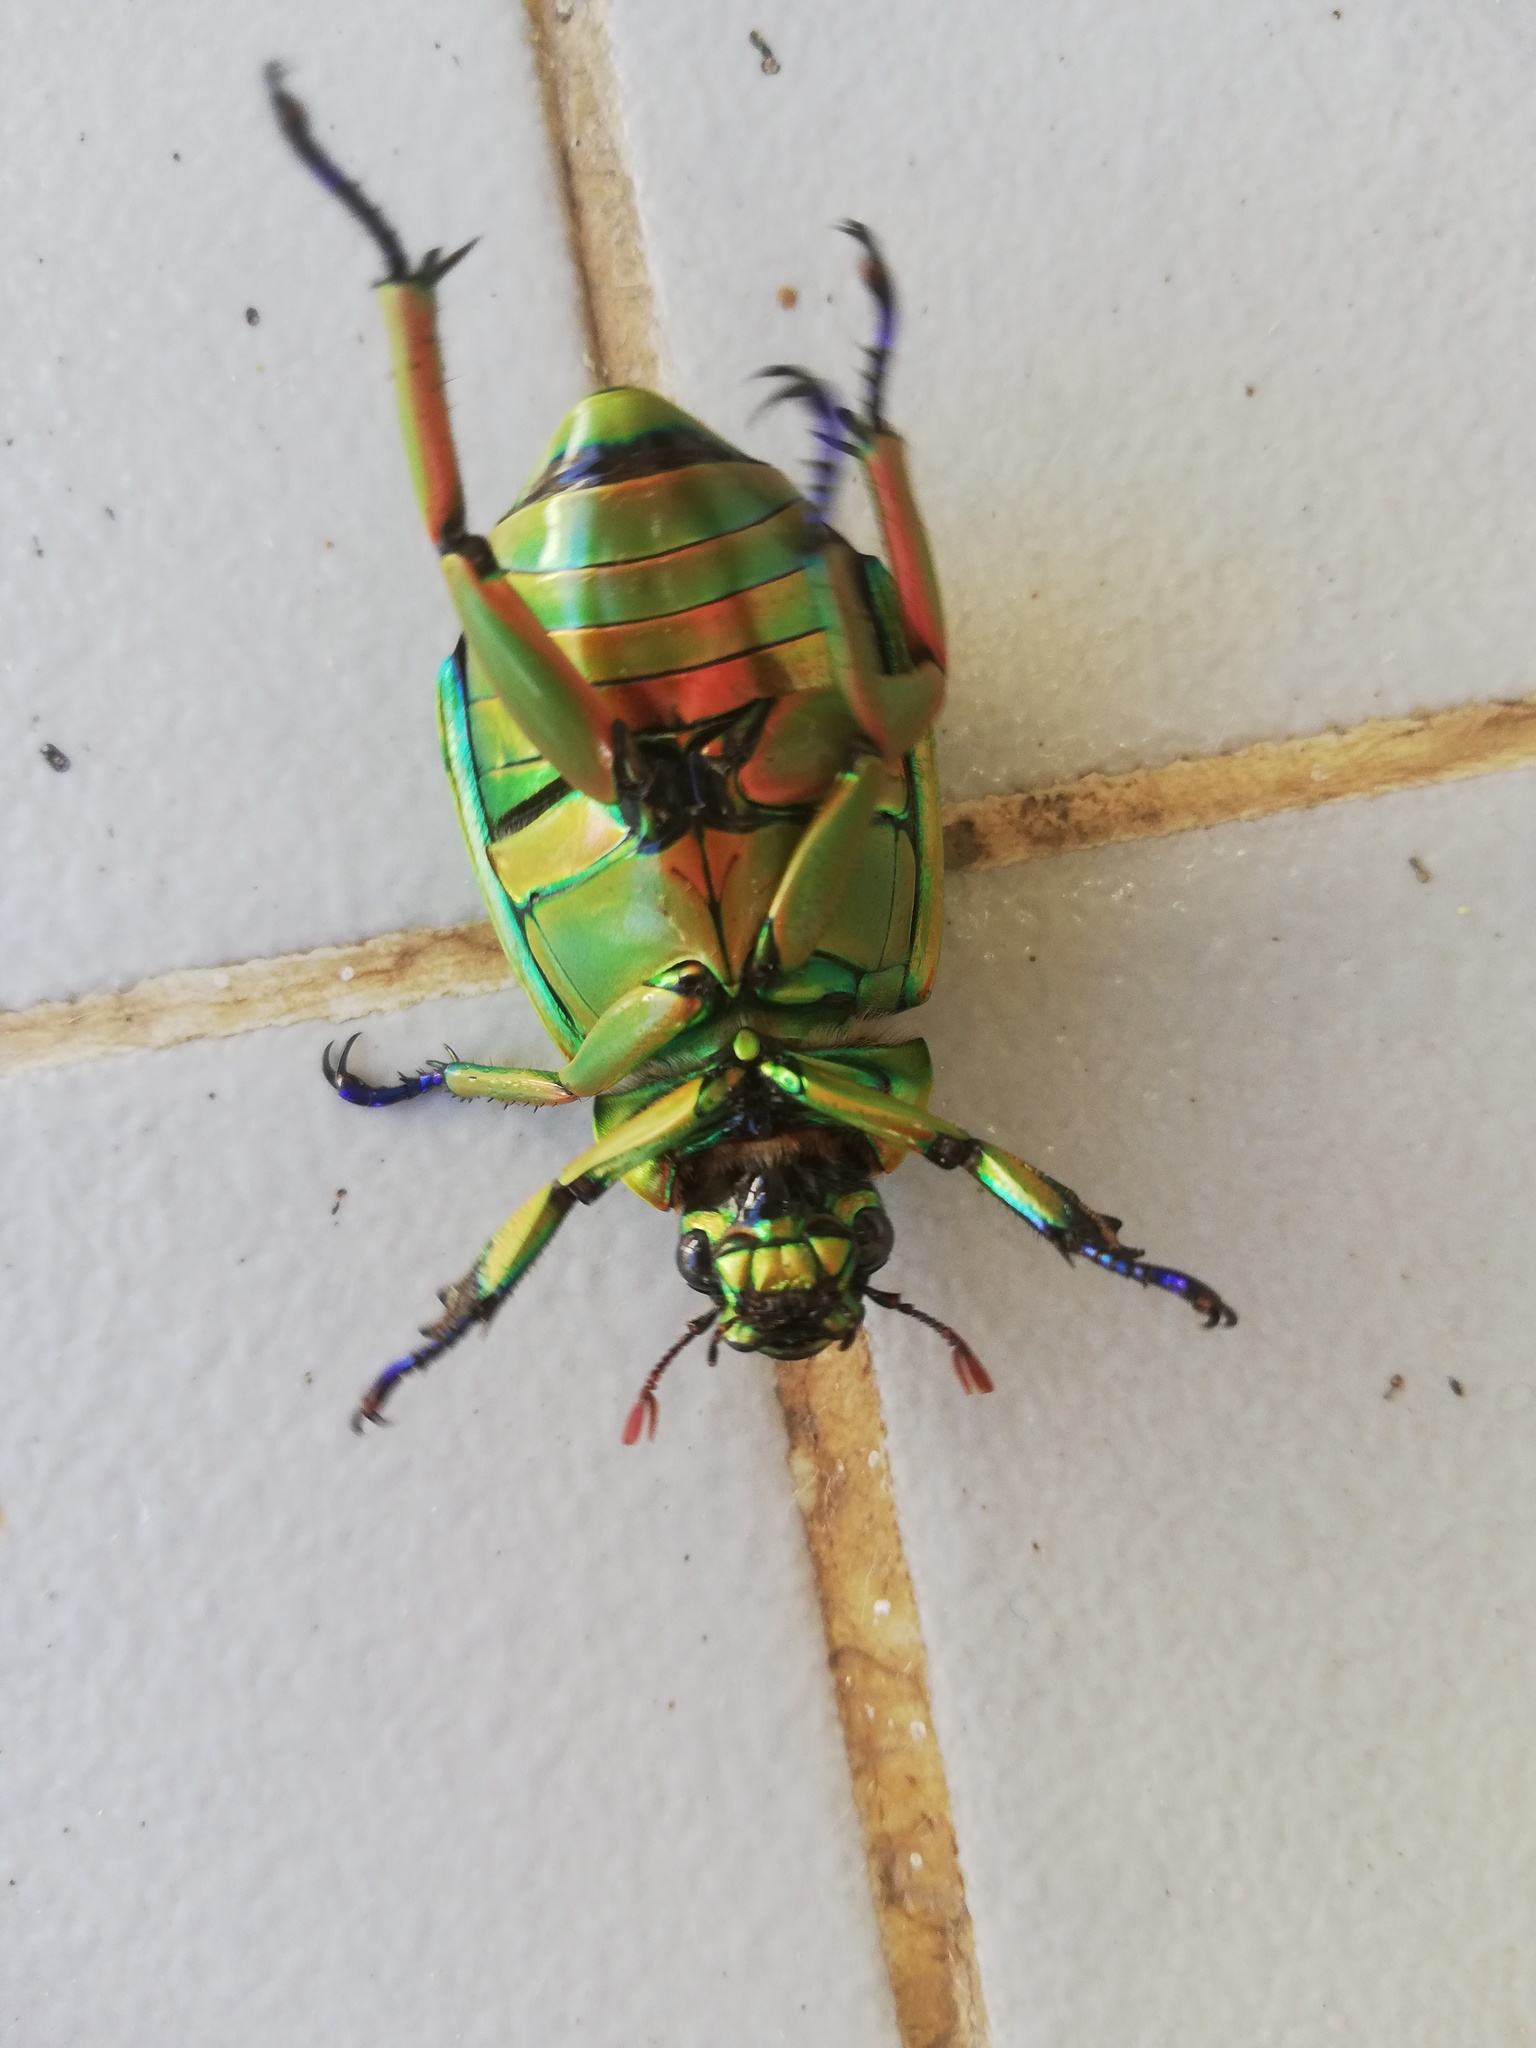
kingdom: Animalia
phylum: Arthropoda
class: Insecta
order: Coleoptera
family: Scarabaeidae
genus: Chrysina
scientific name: Chrysina macropus
